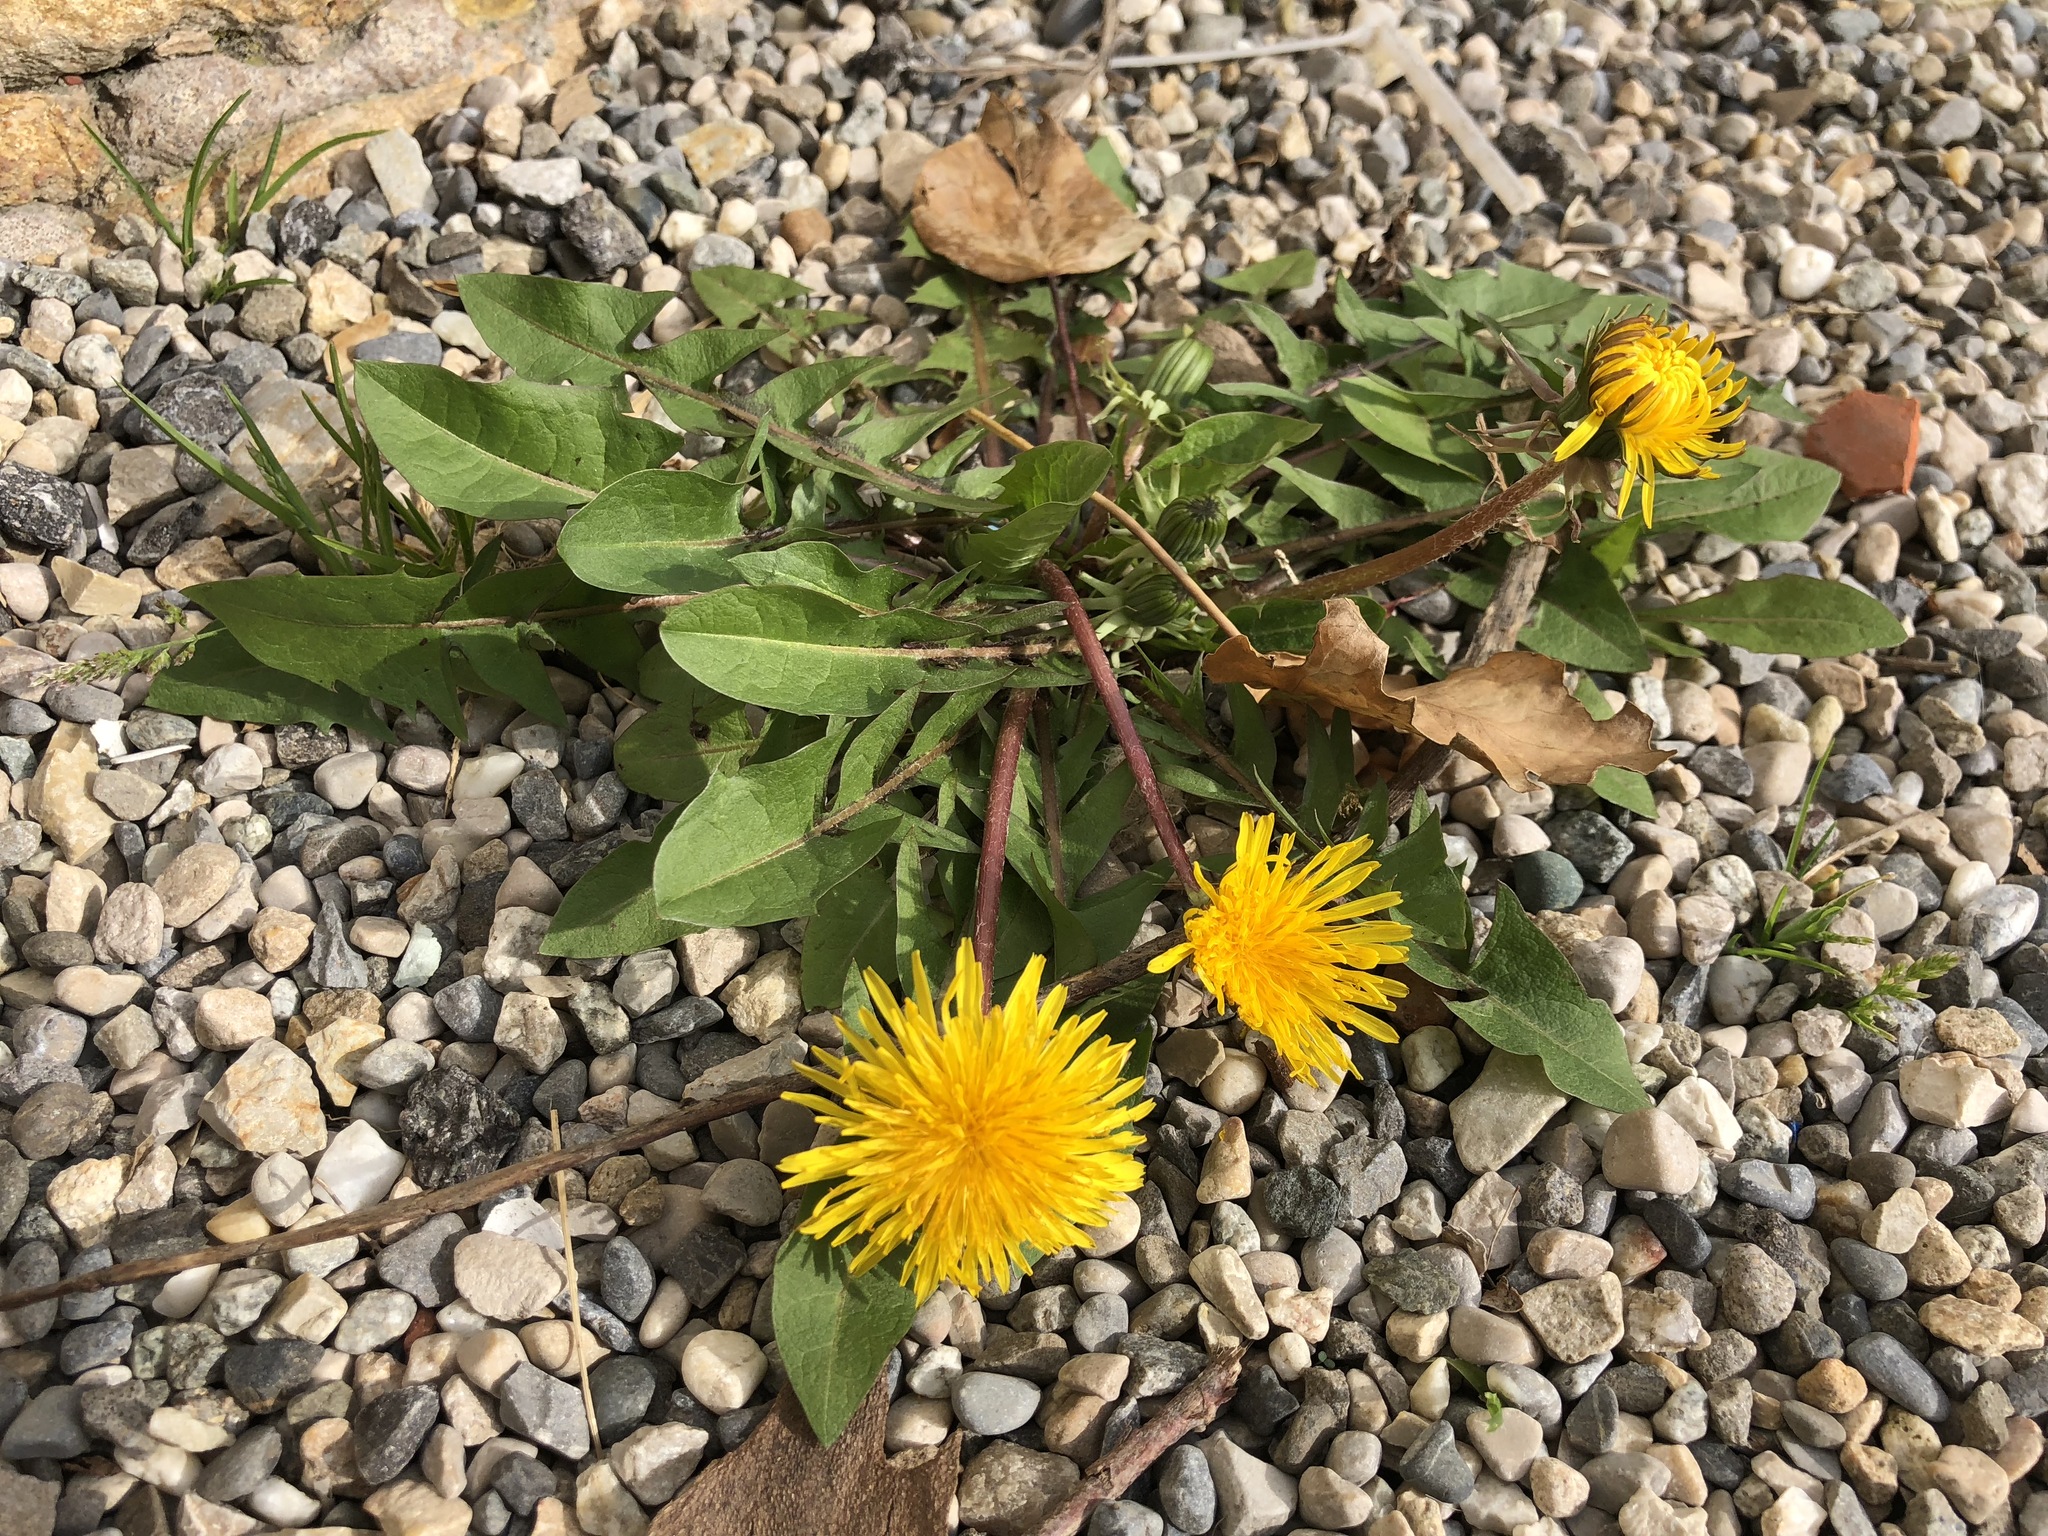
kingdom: Plantae
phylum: Tracheophyta
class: Magnoliopsida
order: Asterales
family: Asteraceae
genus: Taraxacum
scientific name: Taraxacum officinale
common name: Common dandelion
